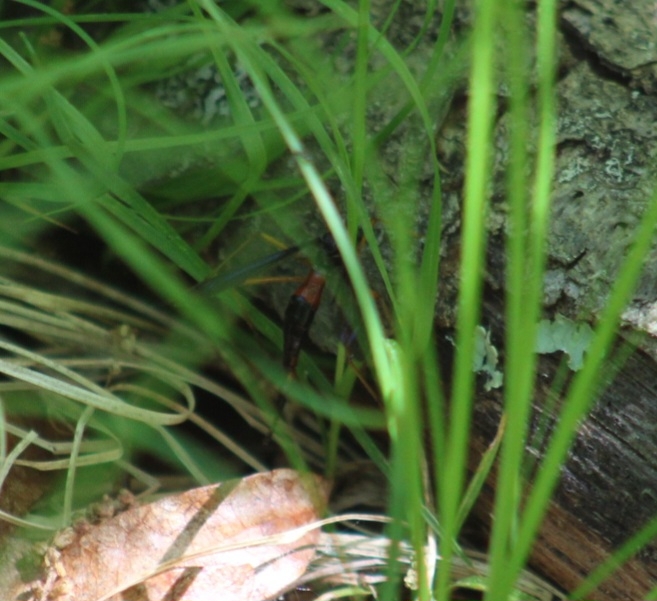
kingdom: Animalia
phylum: Arthropoda
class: Insecta
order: Diptera
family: Tipulidae
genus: Tanyptera
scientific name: Tanyptera dorsalis
